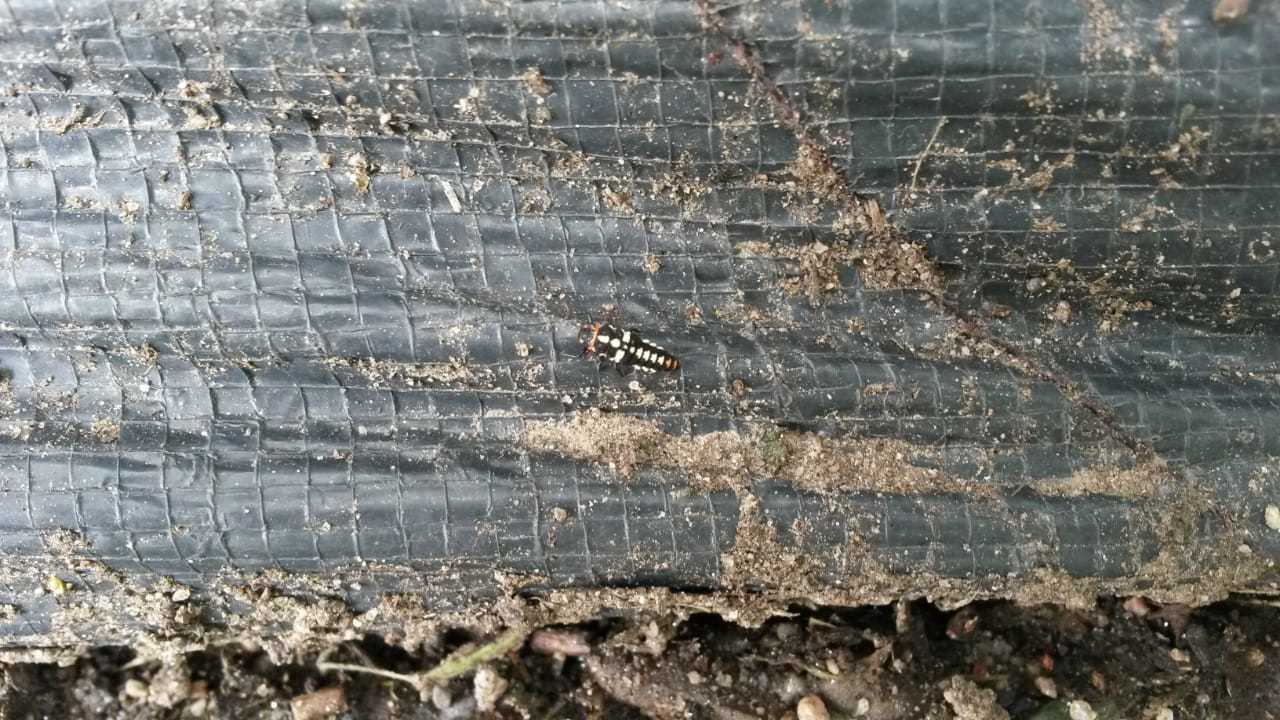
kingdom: Animalia
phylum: Arthropoda
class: Insecta
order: Coleoptera
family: Coccinellidae
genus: Eriopis
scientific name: Eriopis connexa
